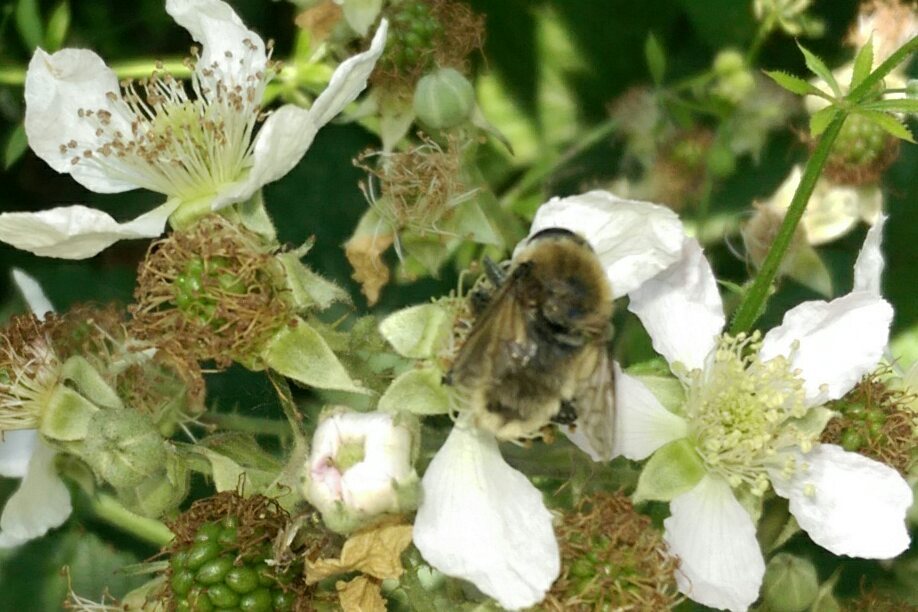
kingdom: Animalia
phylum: Arthropoda
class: Insecta
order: Diptera
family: Syrphidae
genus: Merodon
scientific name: Merodon equestris
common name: Greater bulb-fly
